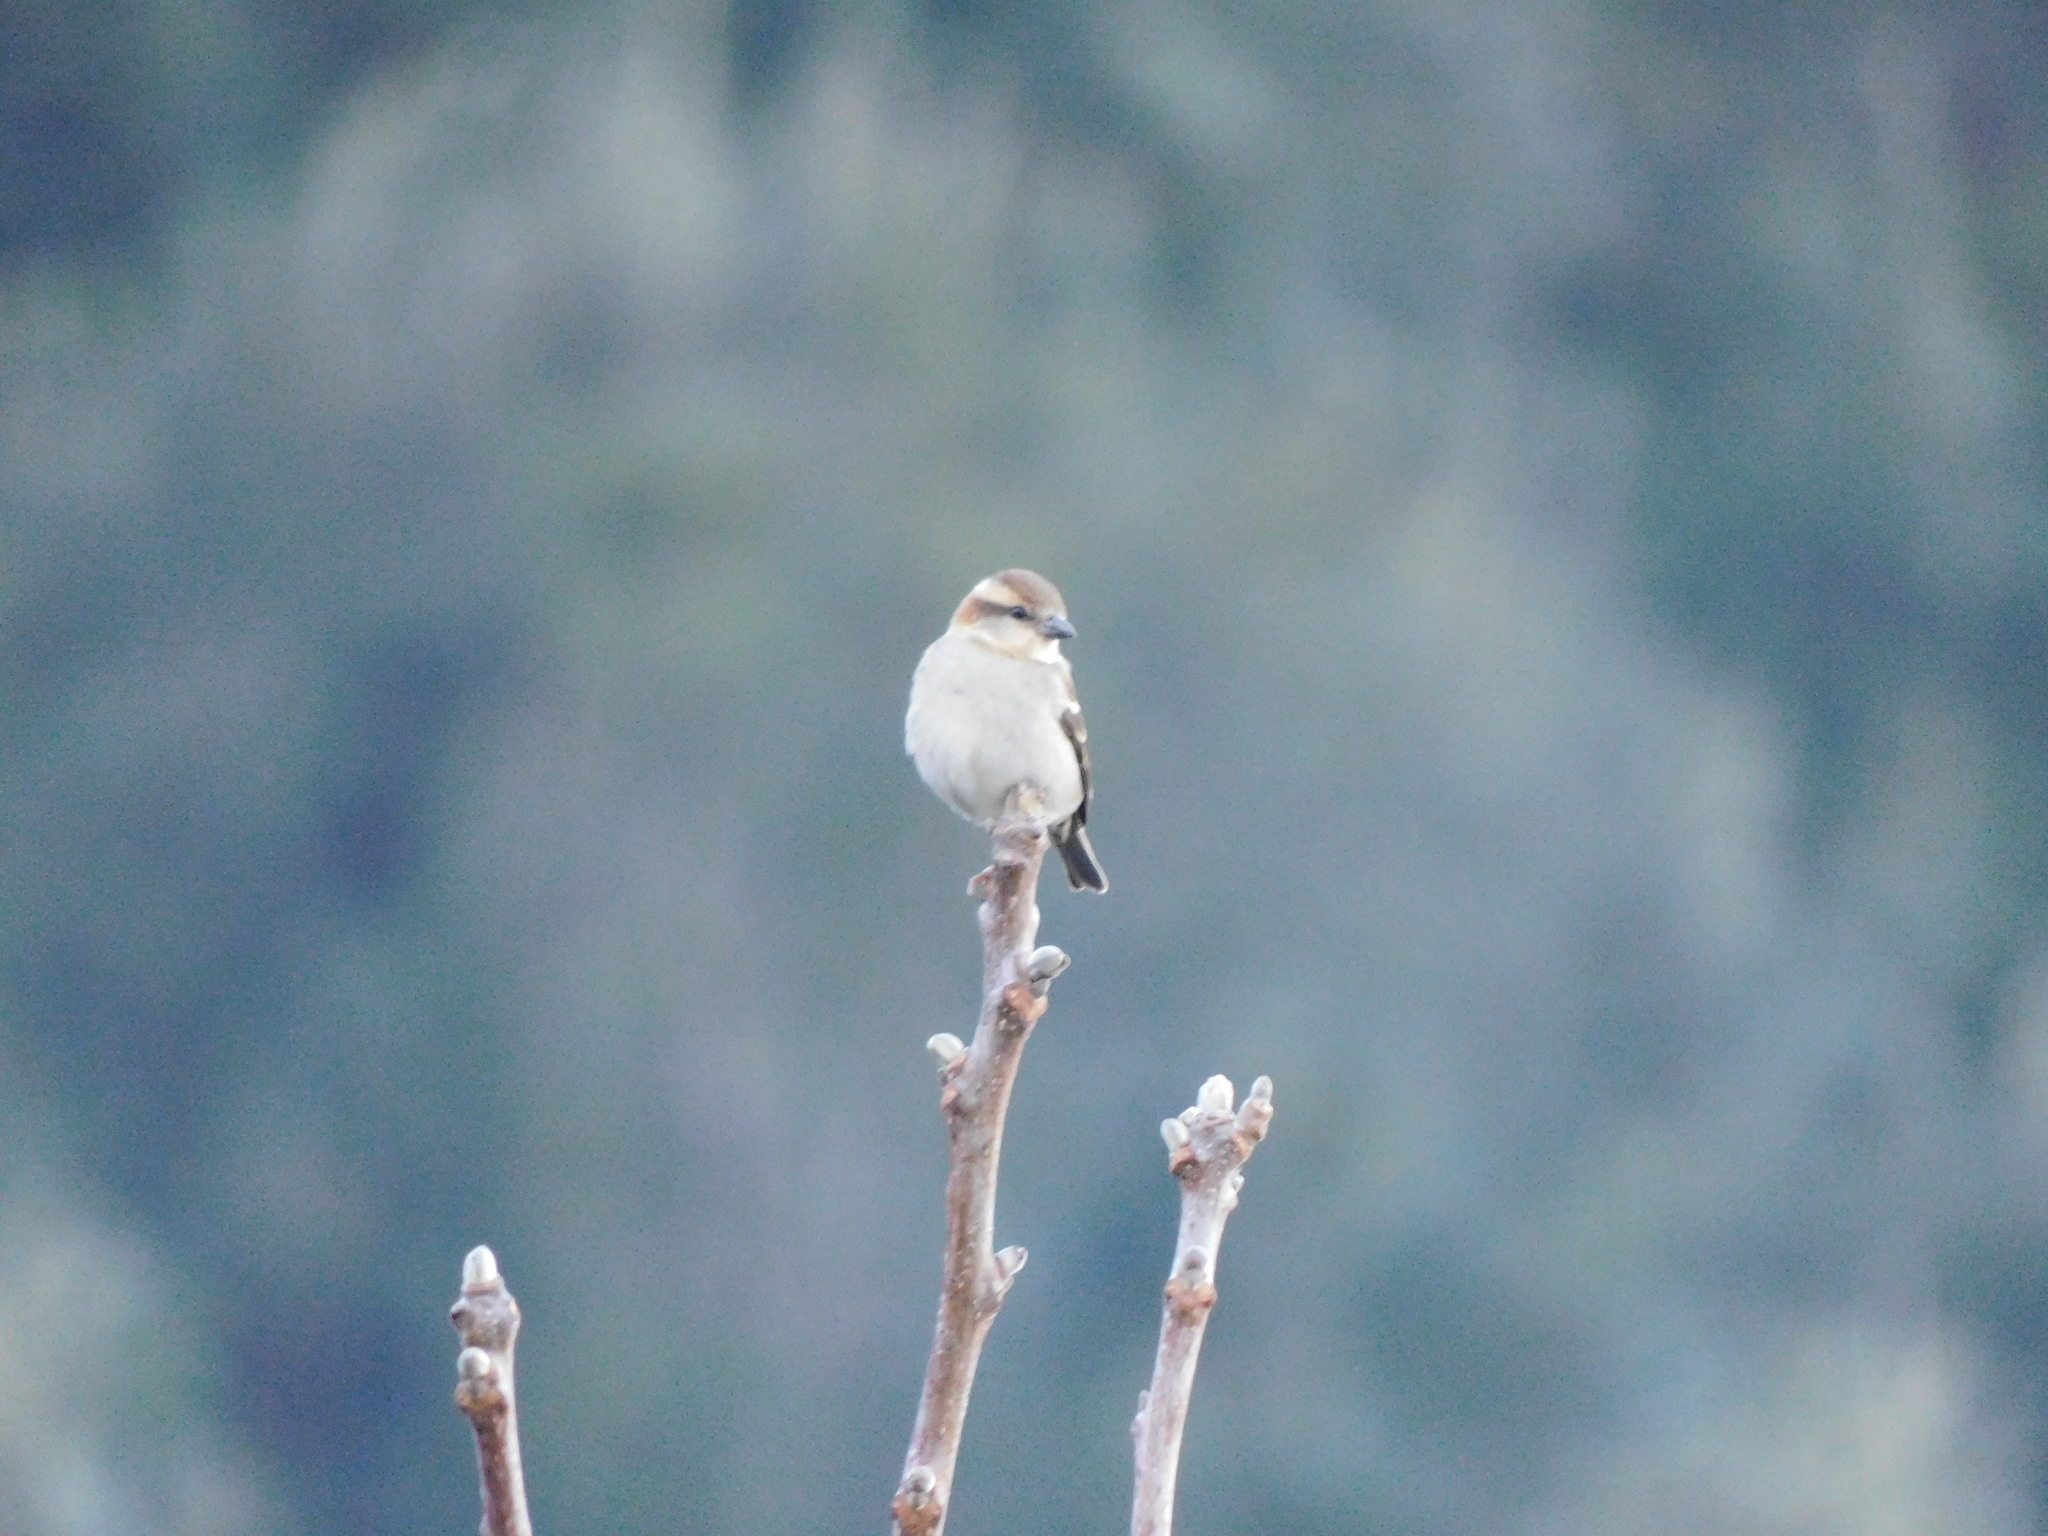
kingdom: Animalia
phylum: Chordata
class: Aves
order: Passeriformes
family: Passeridae
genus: Passer
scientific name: Passer cinnamomeus
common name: Russet sparrow
